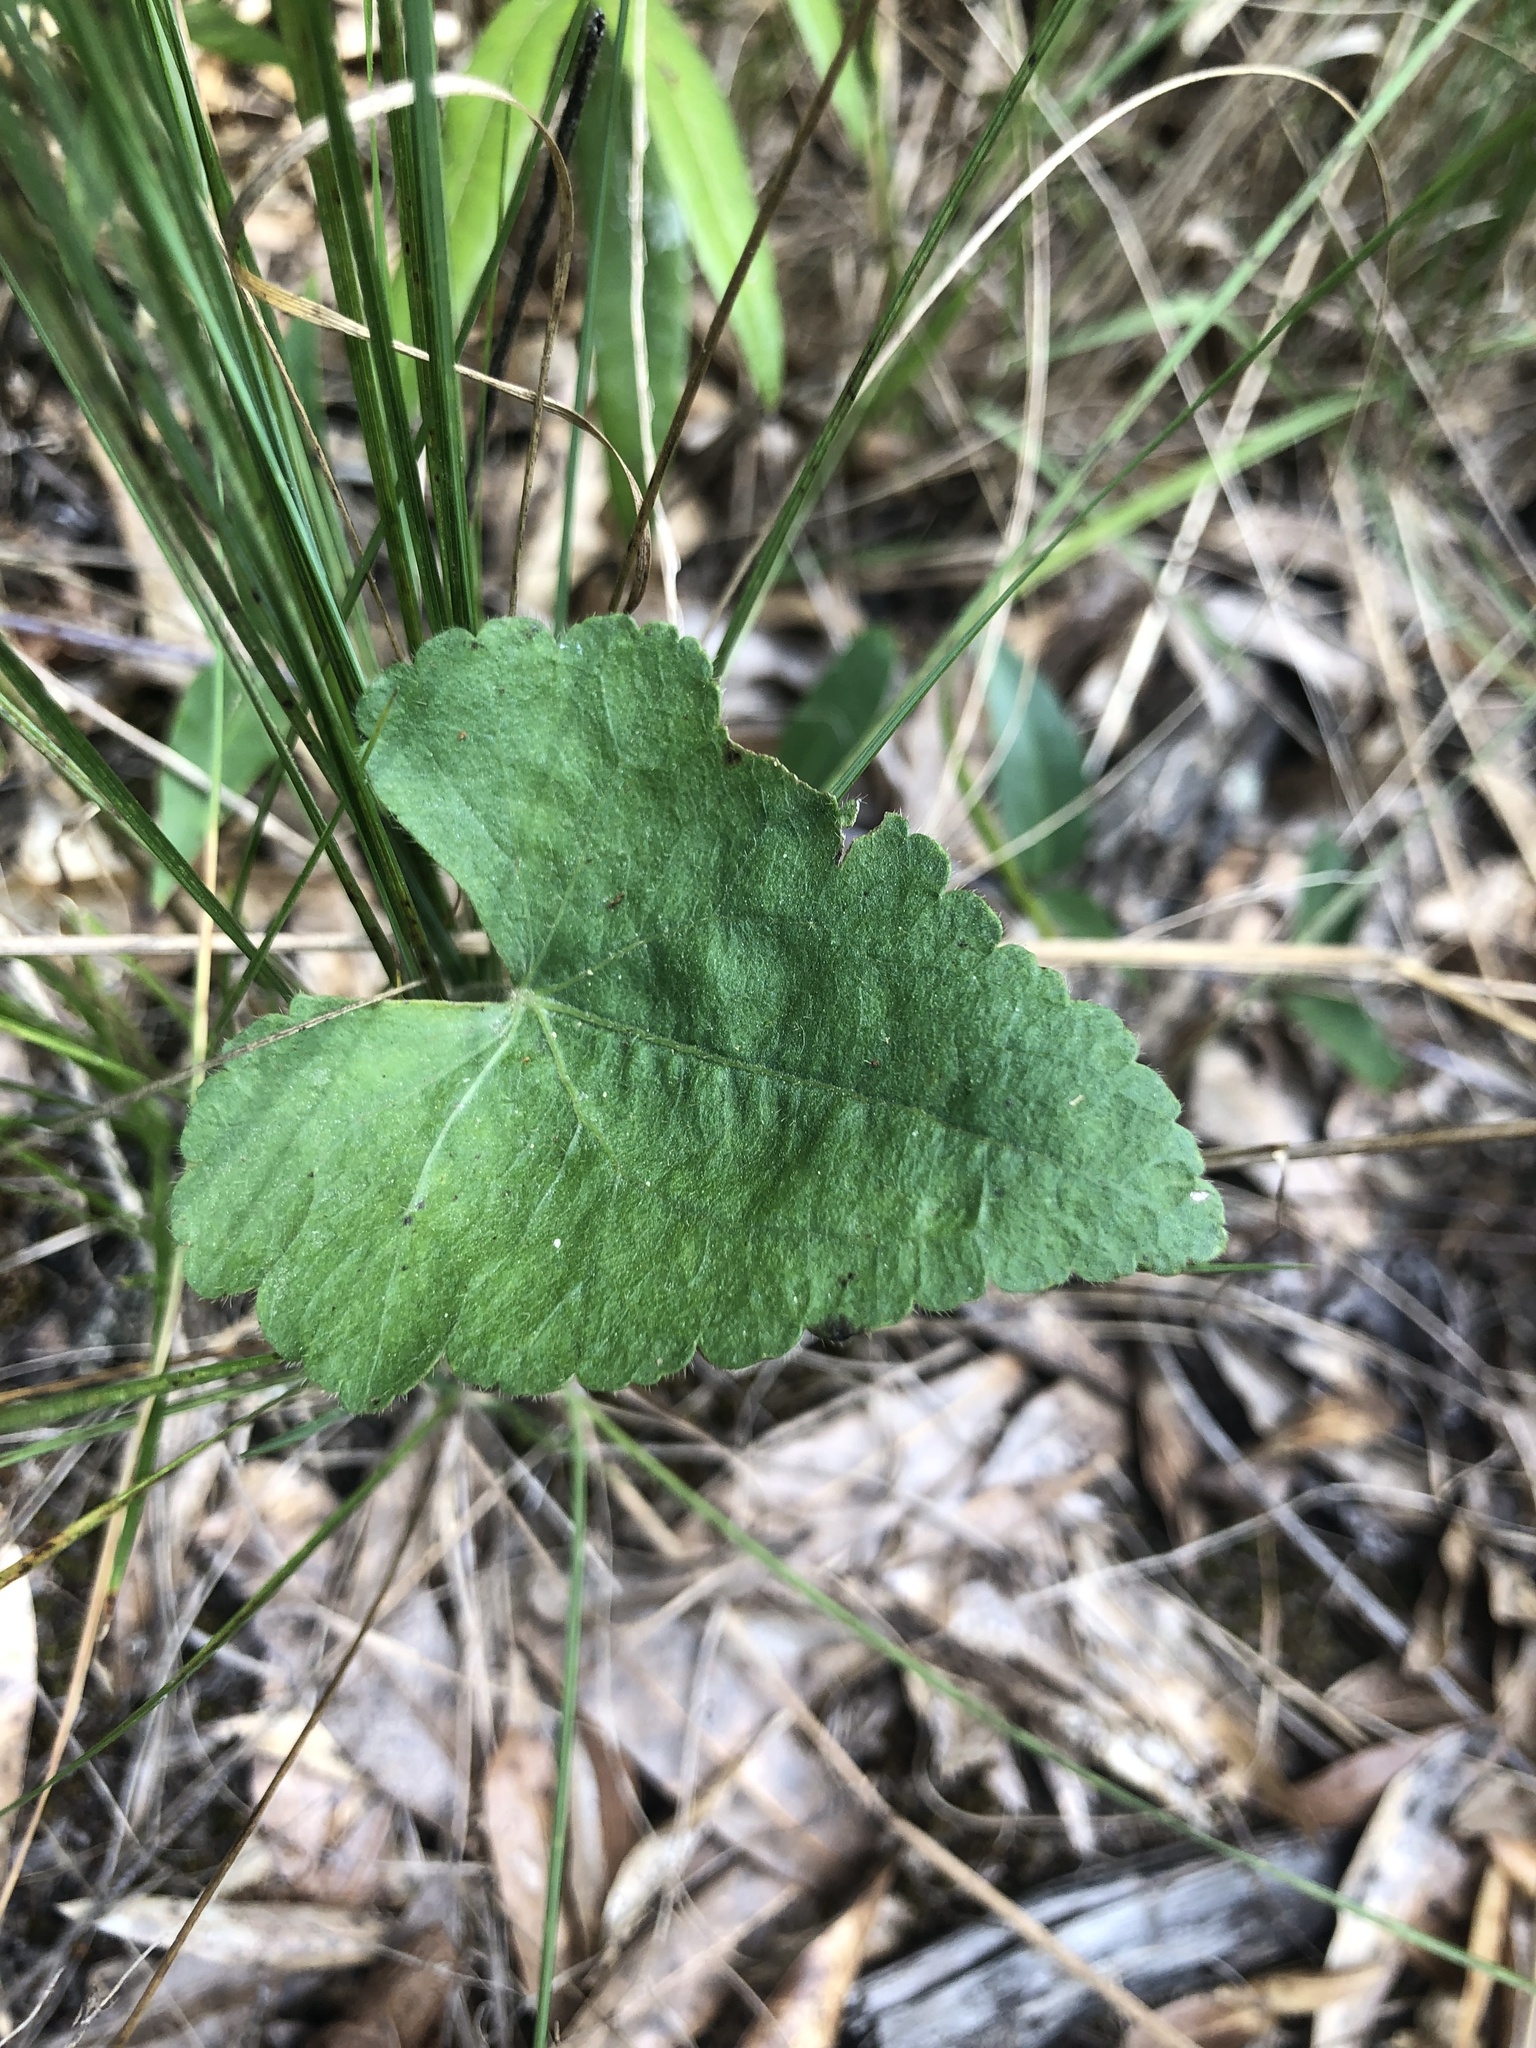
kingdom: Plantae
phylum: Tracheophyta
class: Magnoliopsida
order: Malvales
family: Malvaceae
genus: Callirhoe
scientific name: Callirhoe triangulata
